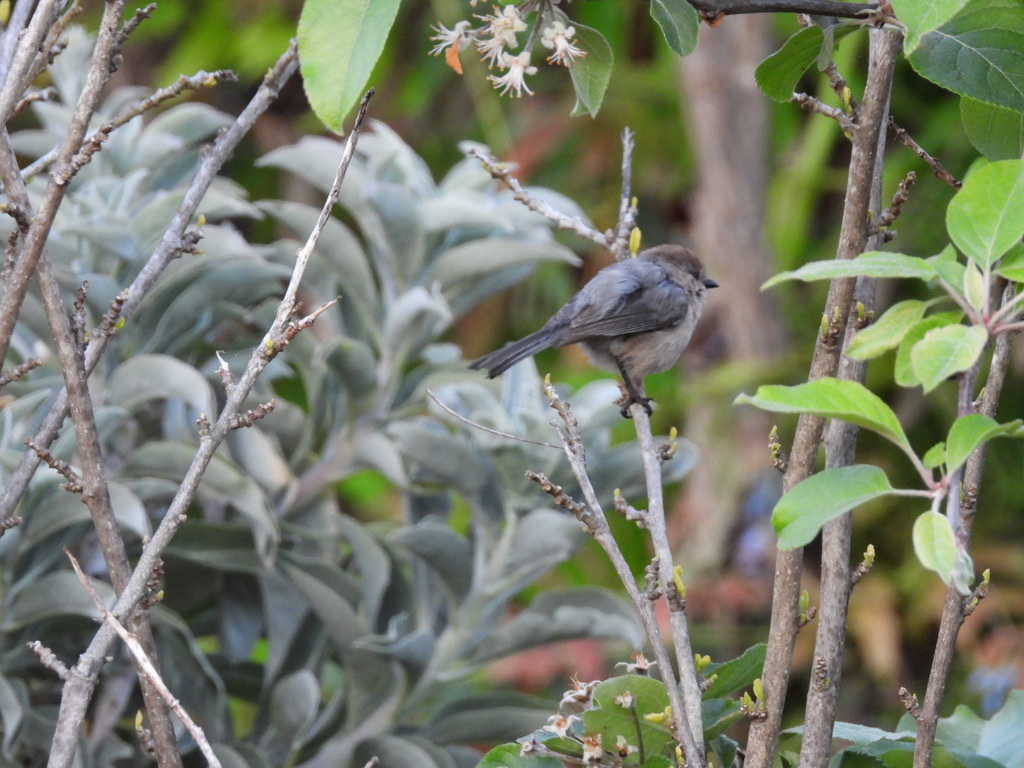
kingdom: Animalia
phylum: Chordata
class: Aves
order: Passeriformes
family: Aegithalidae
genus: Psaltriparus
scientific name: Psaltriparus minimus
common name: American bushtit
